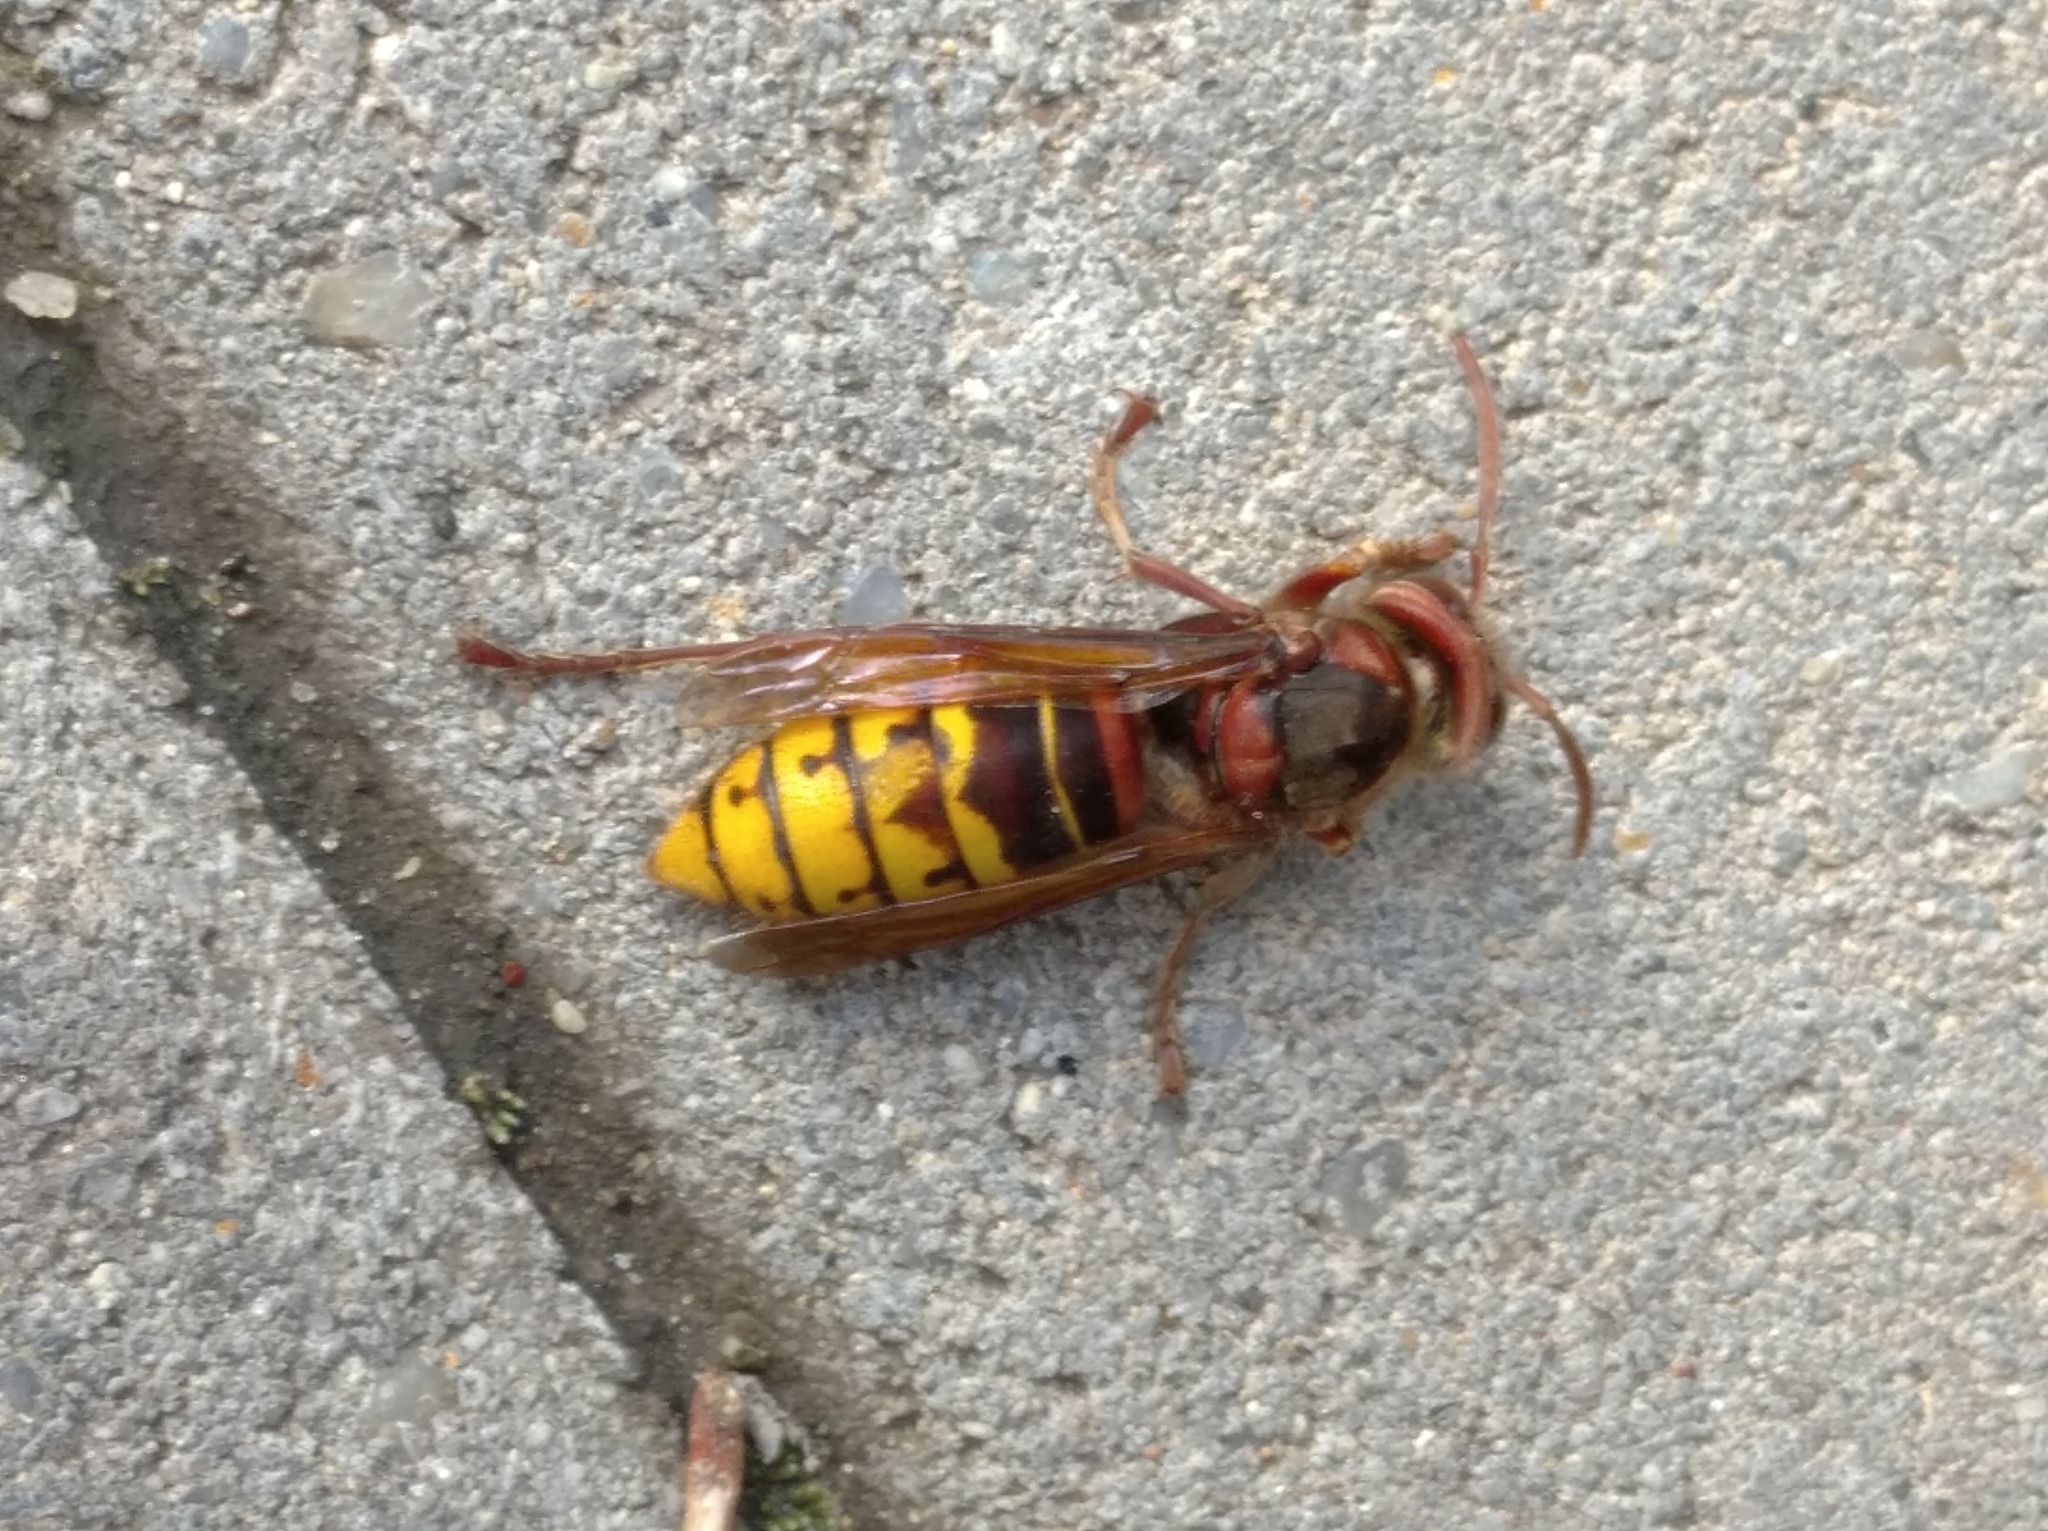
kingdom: Animalia
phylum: Arthropoda
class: Insecta
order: Hymenoptera
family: Vespidae
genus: Vespa
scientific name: Vespa crabro
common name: Hornet
